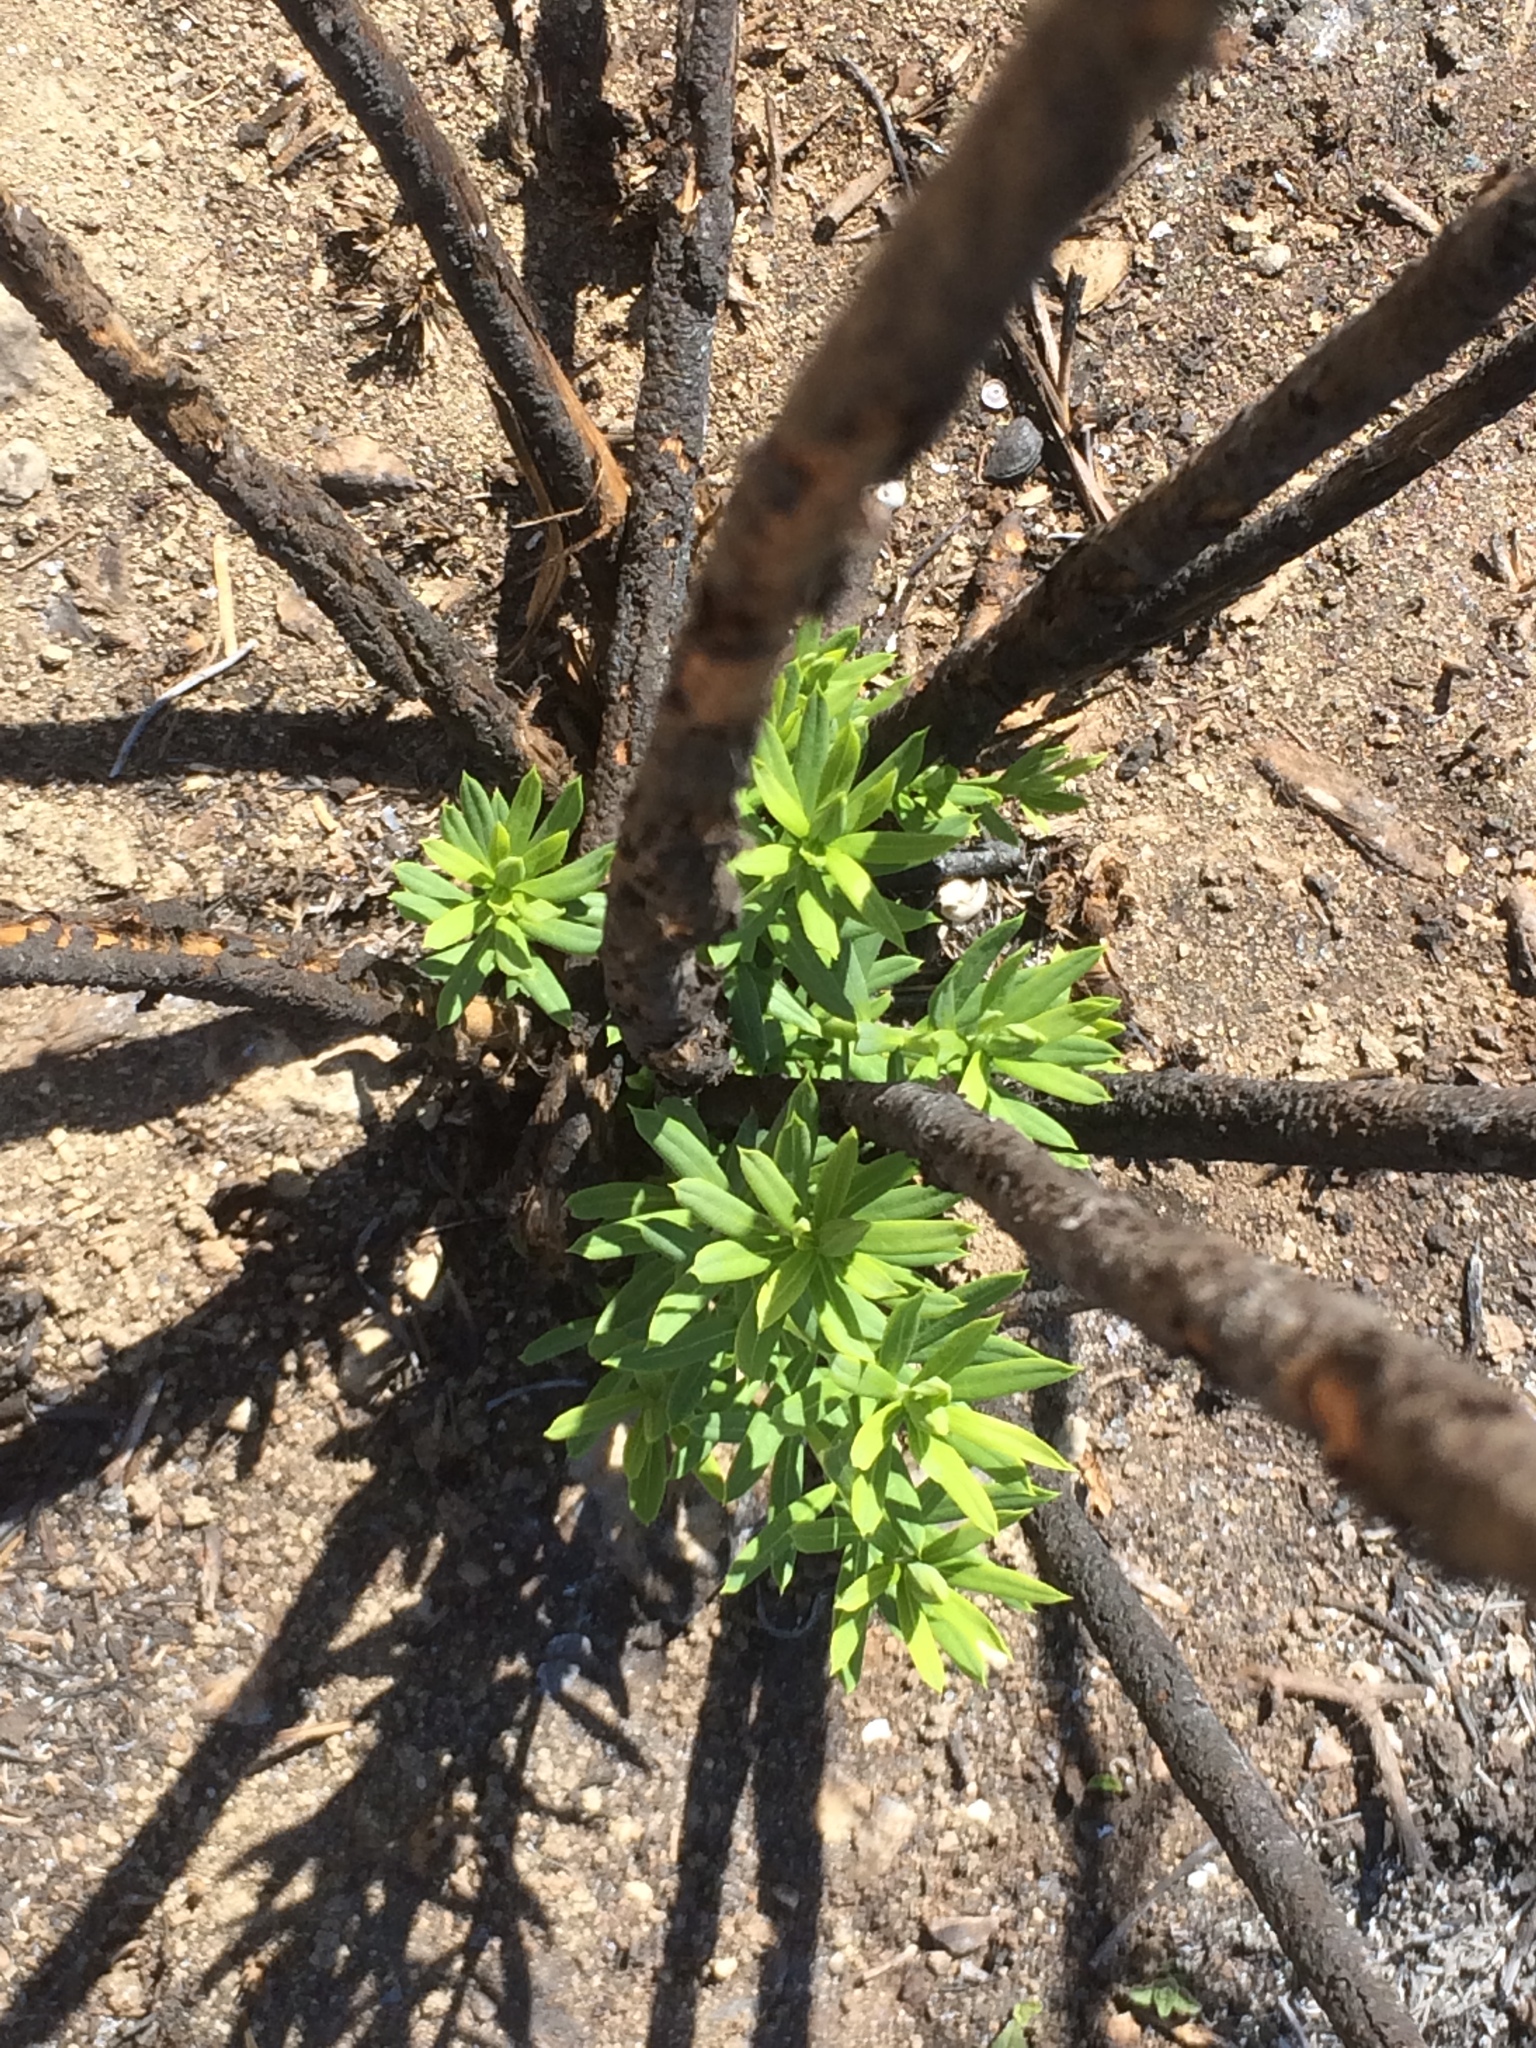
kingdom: Plantae
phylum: Tracheophyta
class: Magnoliopsida
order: Malvales
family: Thymelaeaceae
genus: Daphne
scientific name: Daphne gnidium
